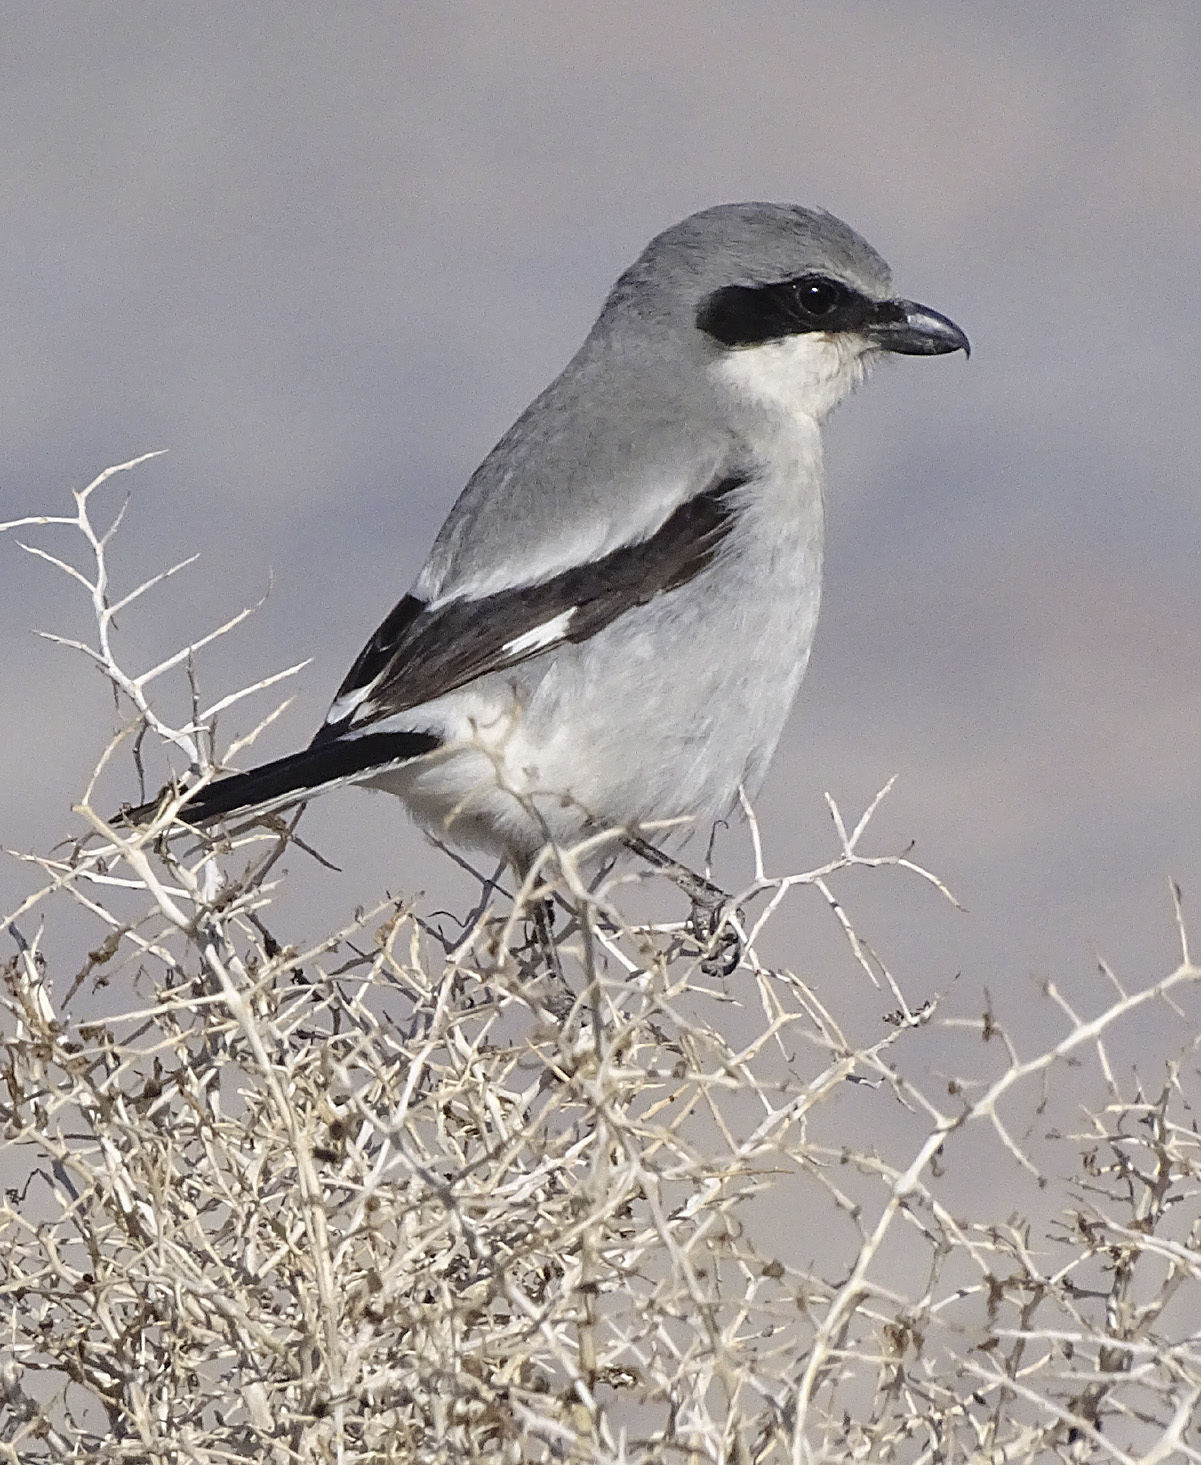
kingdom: Animalia
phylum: Chordata
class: Aves
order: Passeriformes
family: Laniidae
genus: Lanius
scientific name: Lanius ludovicianus
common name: Loggerhead shrike
